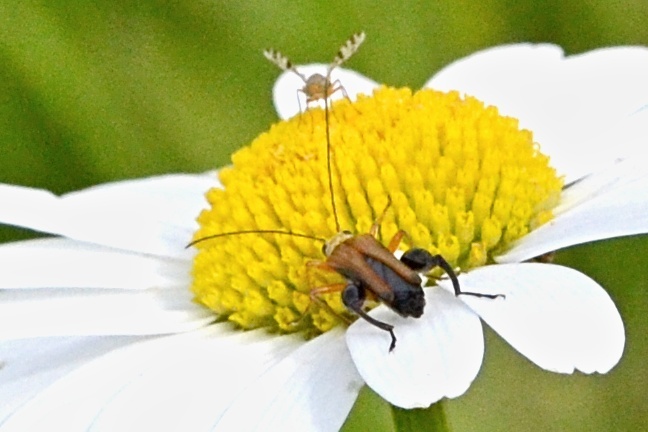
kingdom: Animalia
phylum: Arthropoda
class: Insecta
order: Coleoptera
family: Oedemeridae
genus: Oedemera
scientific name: Oedemera podagrariae
